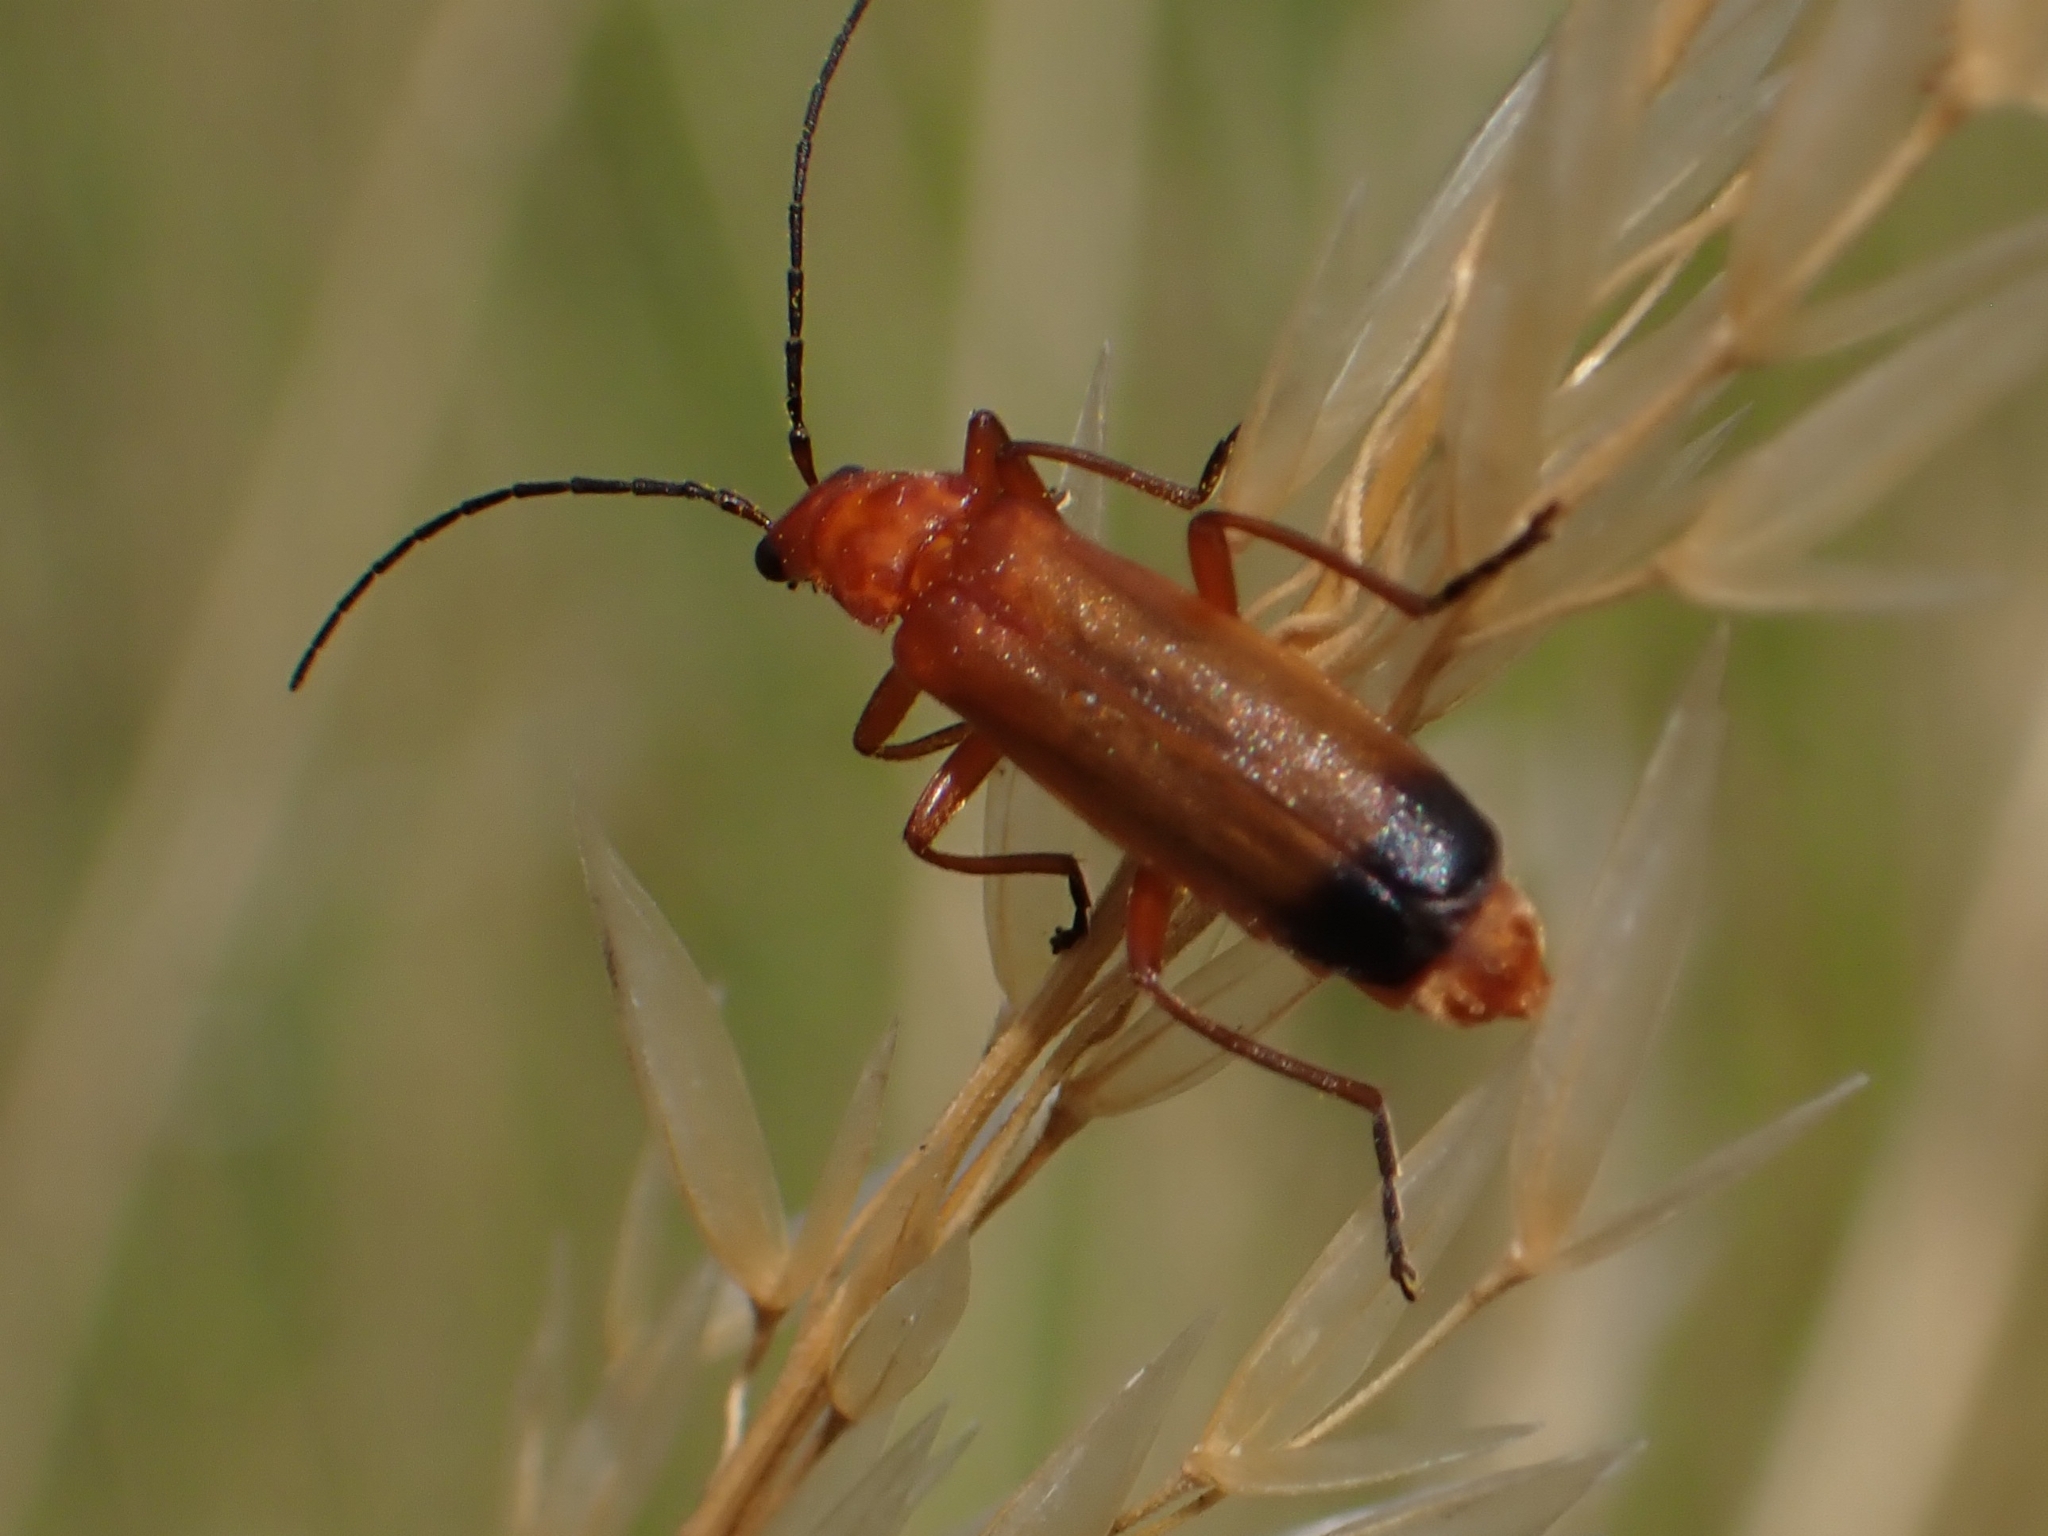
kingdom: Animalia
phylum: Arthropoda
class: Insecta
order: Coleoptera
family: Cantharidae
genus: Rhagonycha
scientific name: Rhagonycha fulva
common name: Common red soldier beetle
